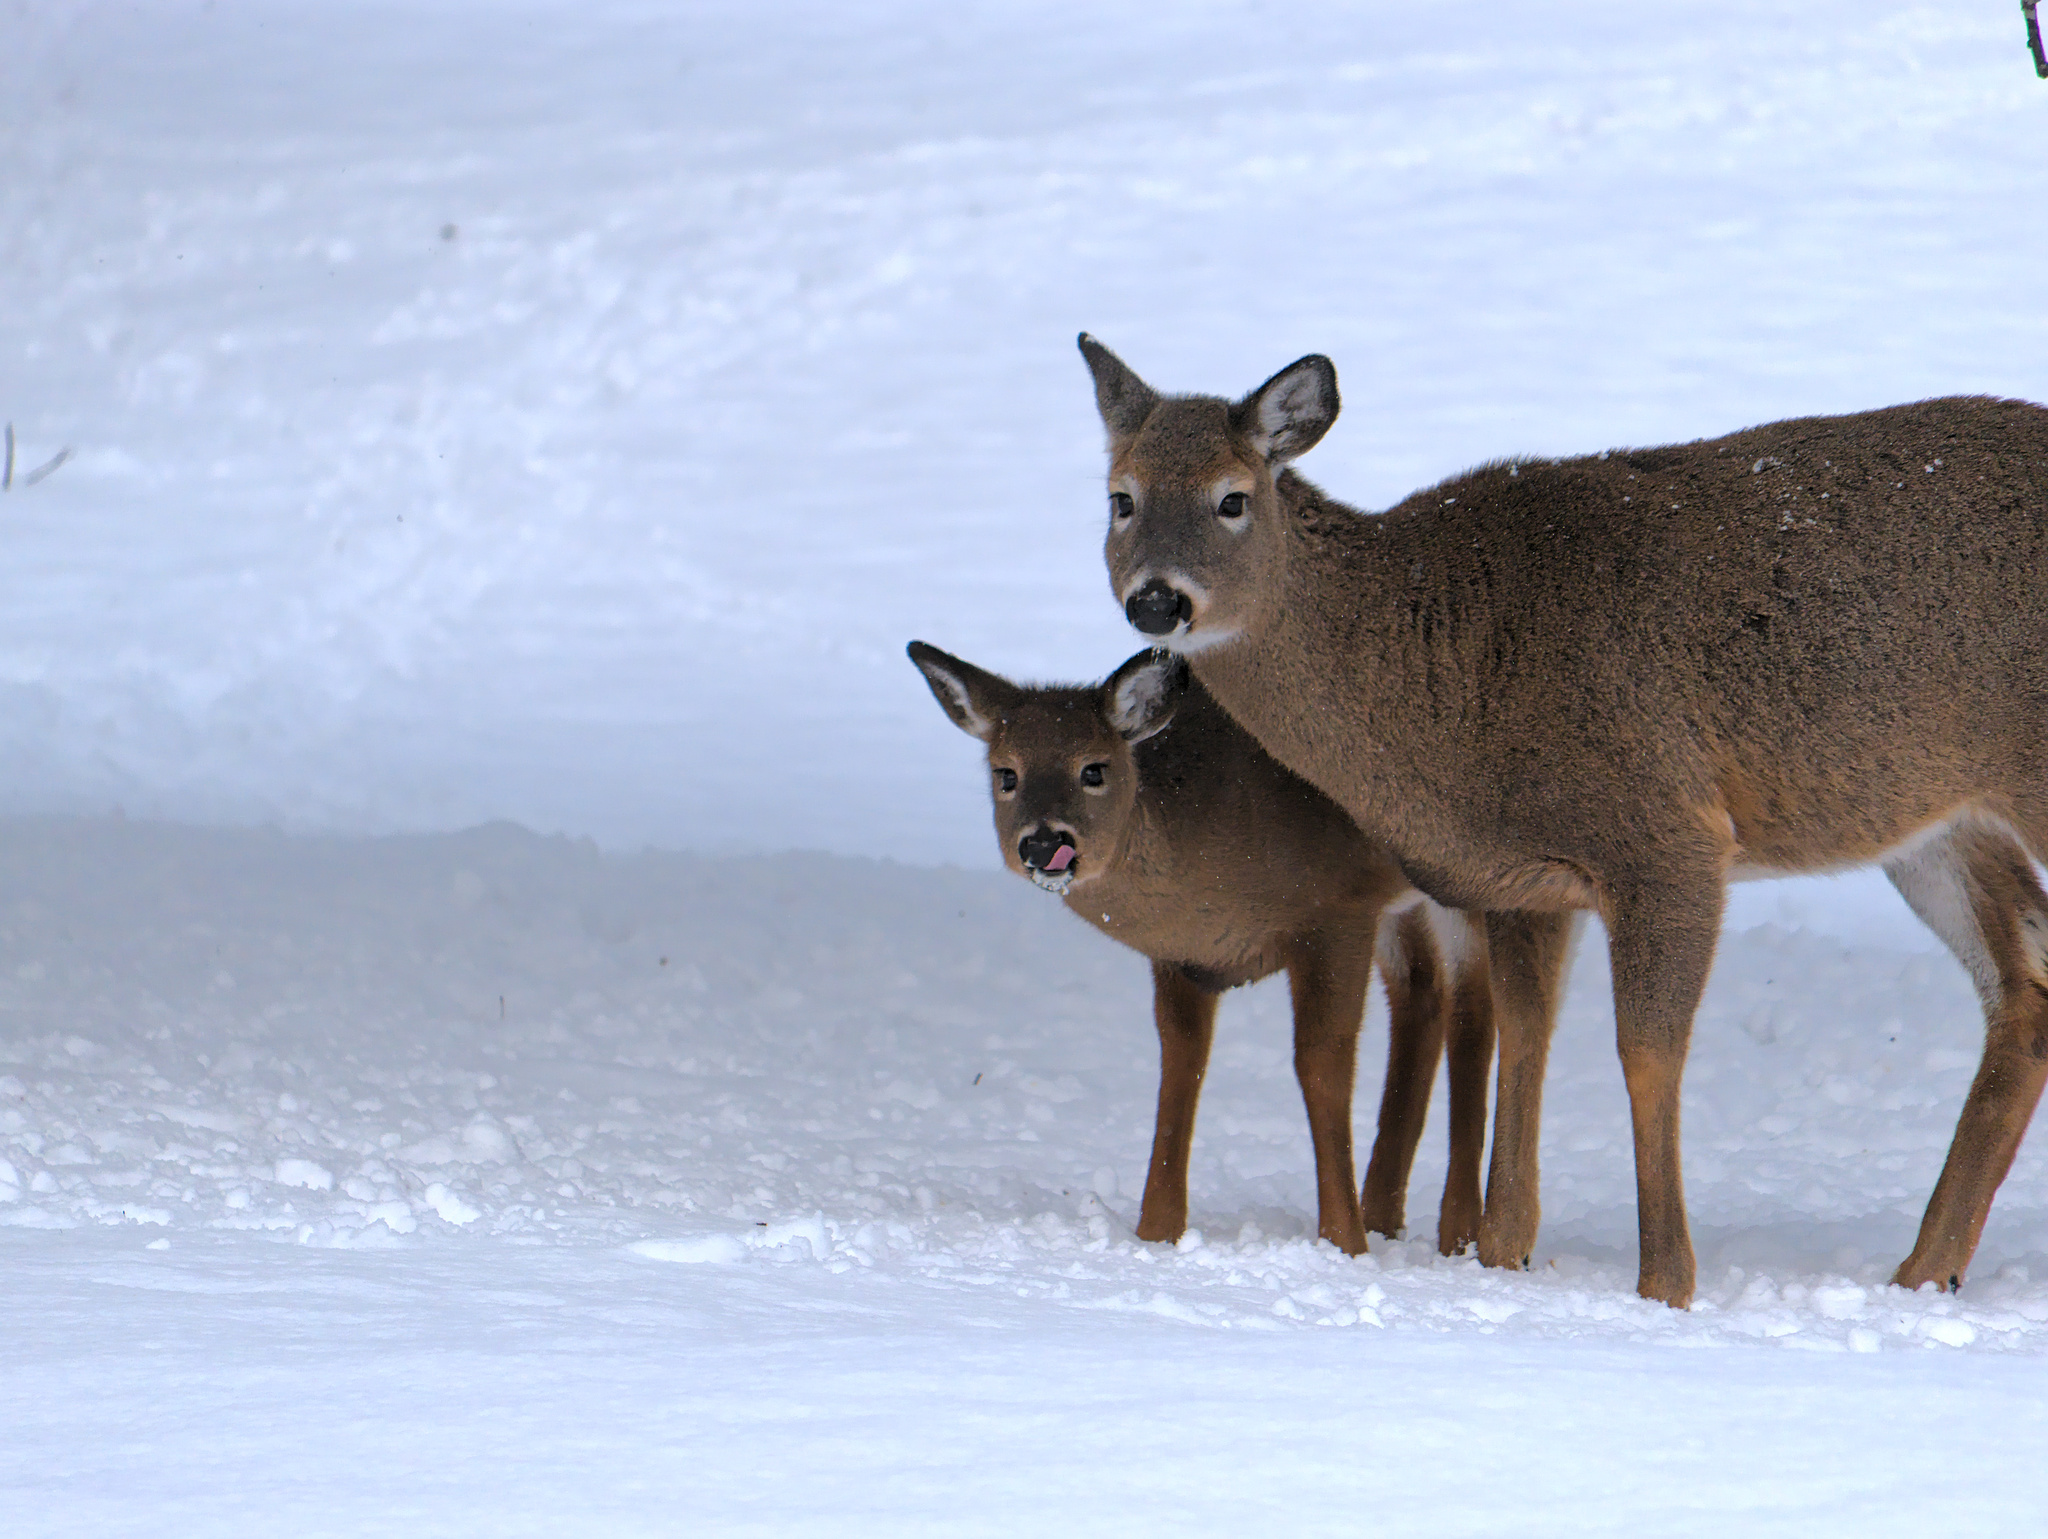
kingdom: Animalia
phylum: Chordata
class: Mammalia
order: Artiodactyla
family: Cervidae
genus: Odocoileus
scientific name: Odocoileus virginianus
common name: White-tailed deer
